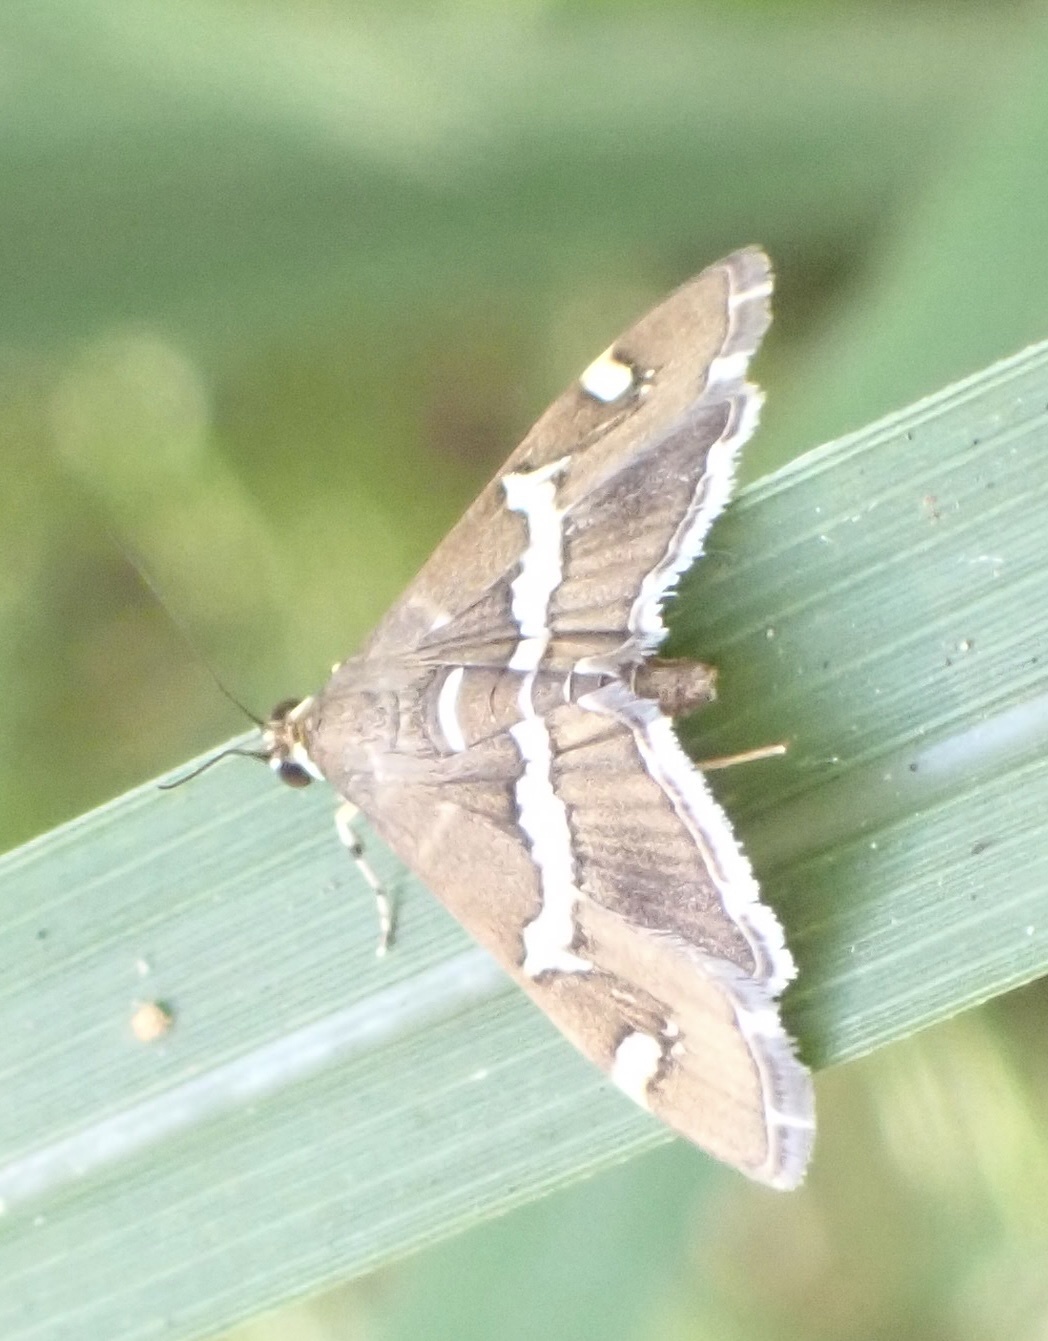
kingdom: Animalia
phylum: Arthropoda
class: Insecta
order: Lepidoptera
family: Crambidae
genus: Spoladea
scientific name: Spoladea recurvalis
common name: Beet webworm moth
